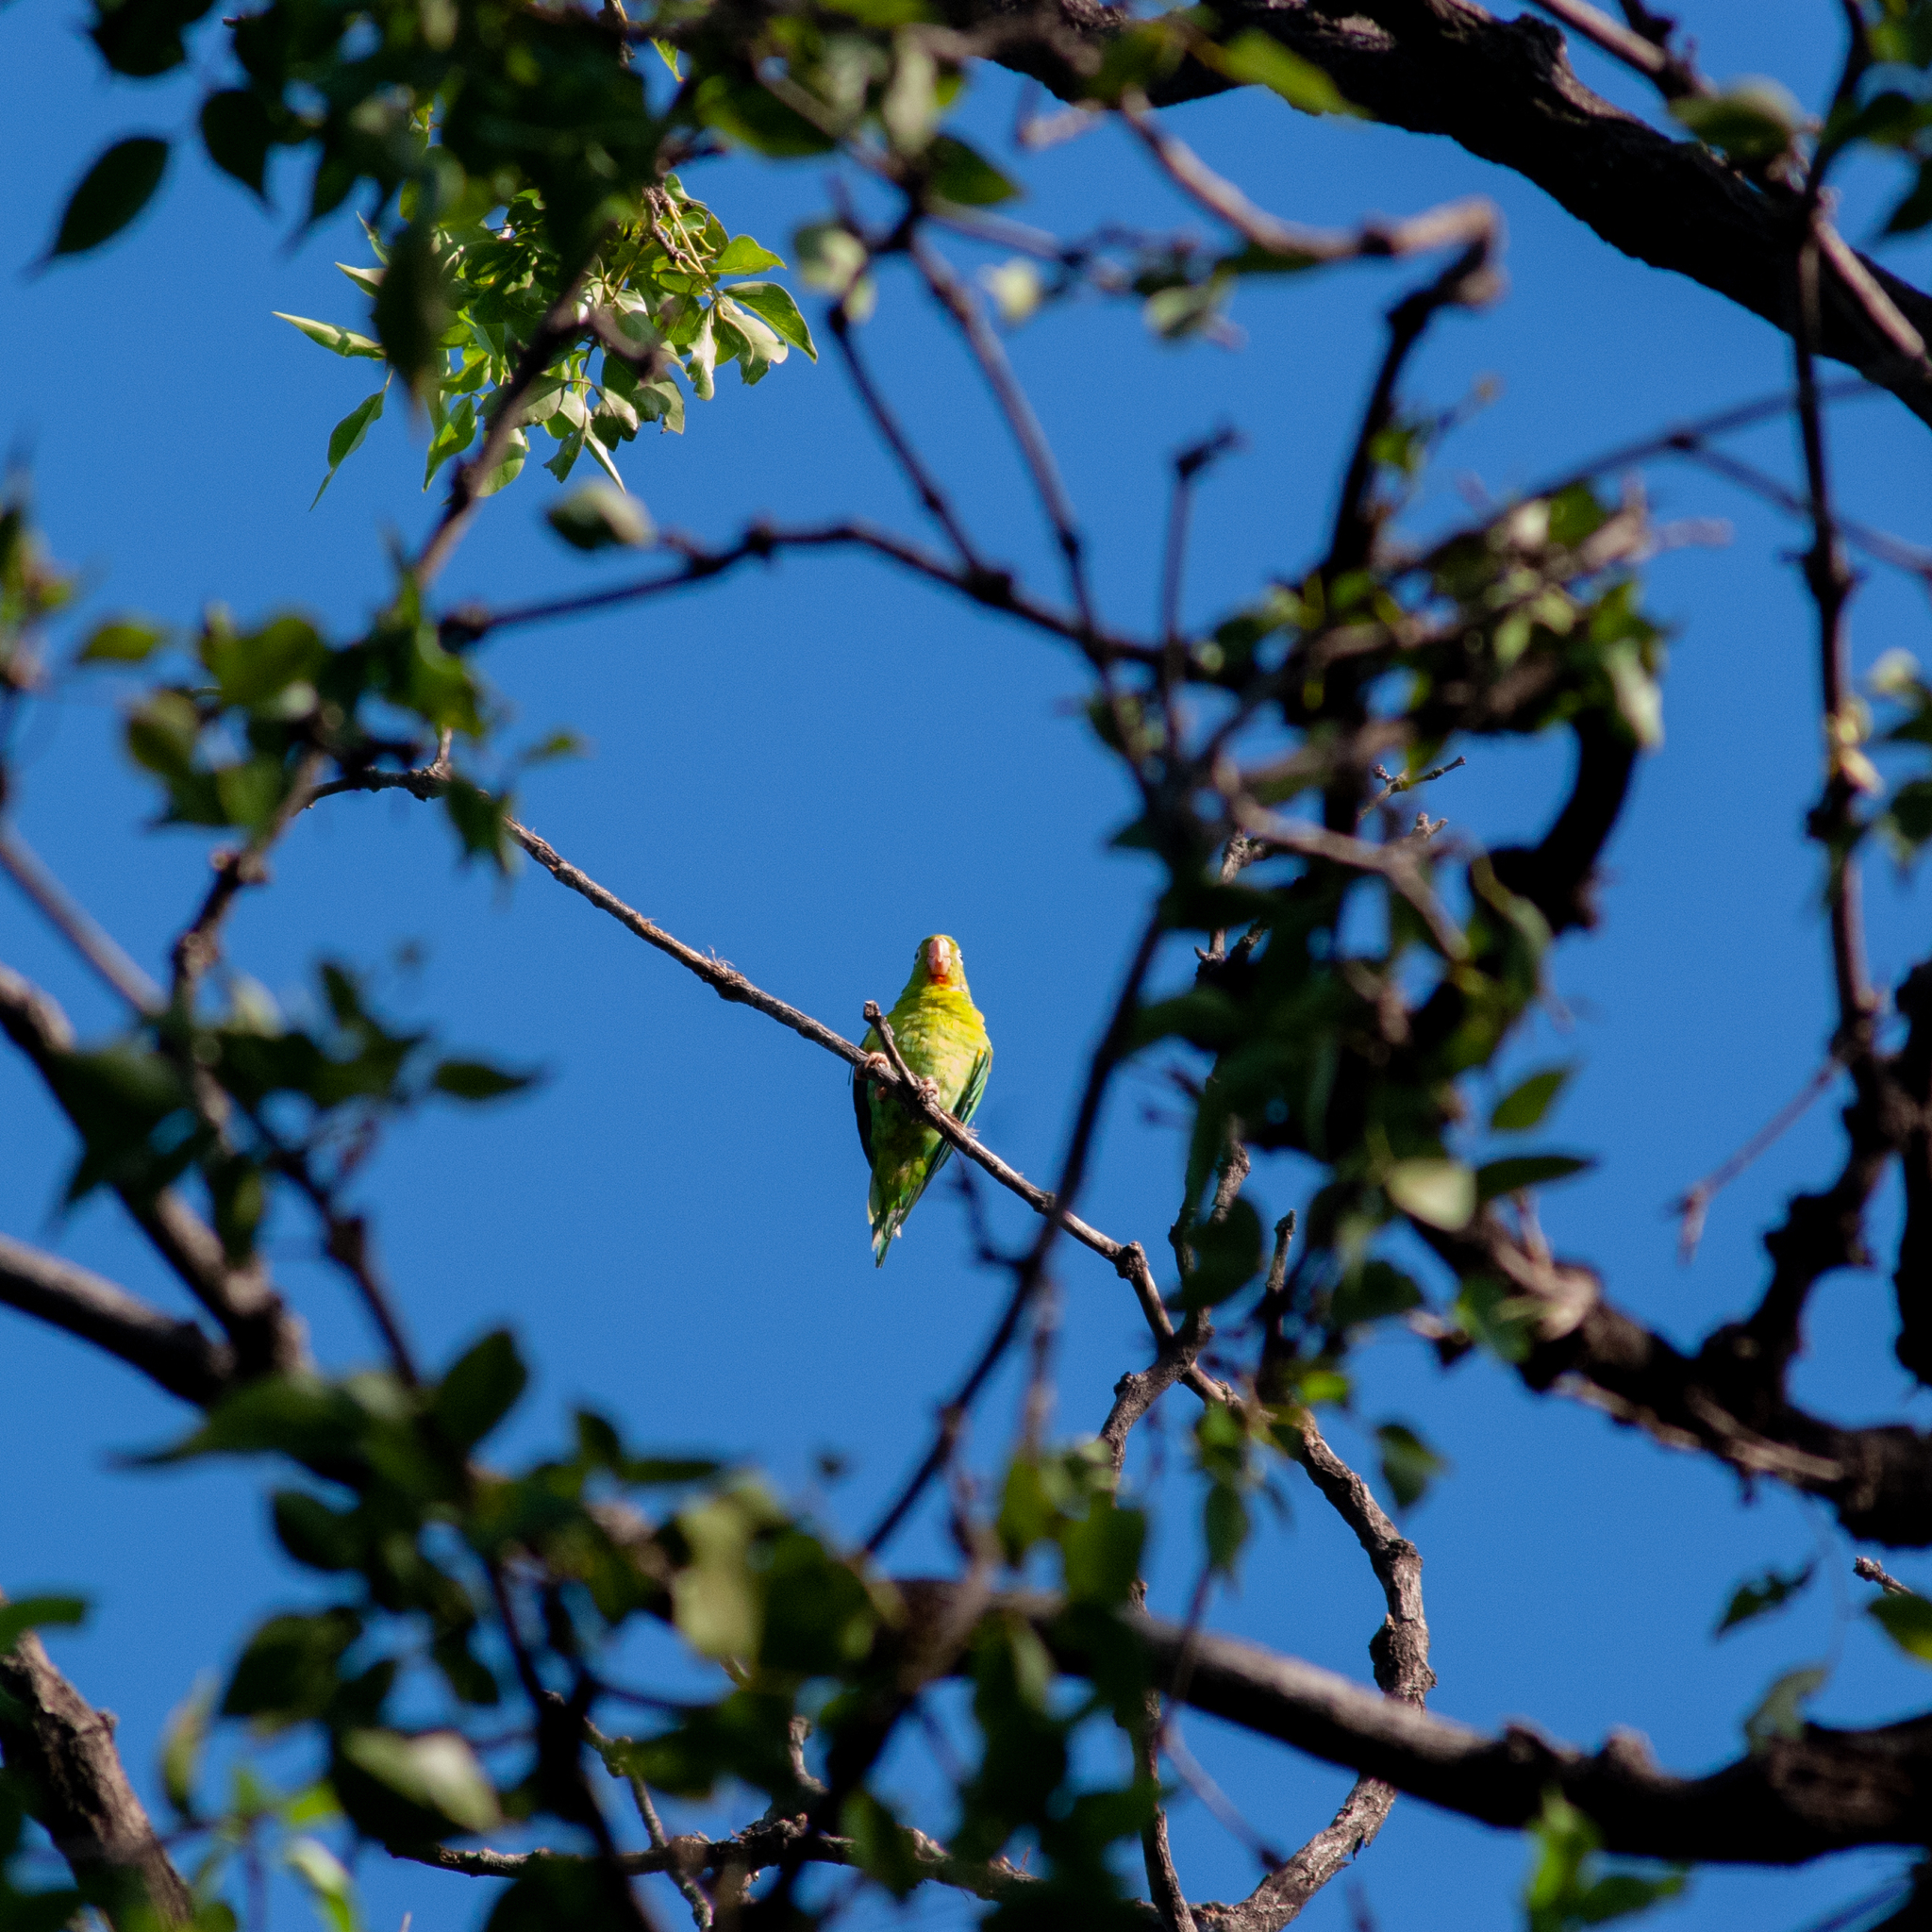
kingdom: Animalia
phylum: Chordata
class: Aves
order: Psittaciformes
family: Psittacidae
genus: Brotogeris
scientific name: Brotogeris jugularis
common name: Orange-chinned parakeet
